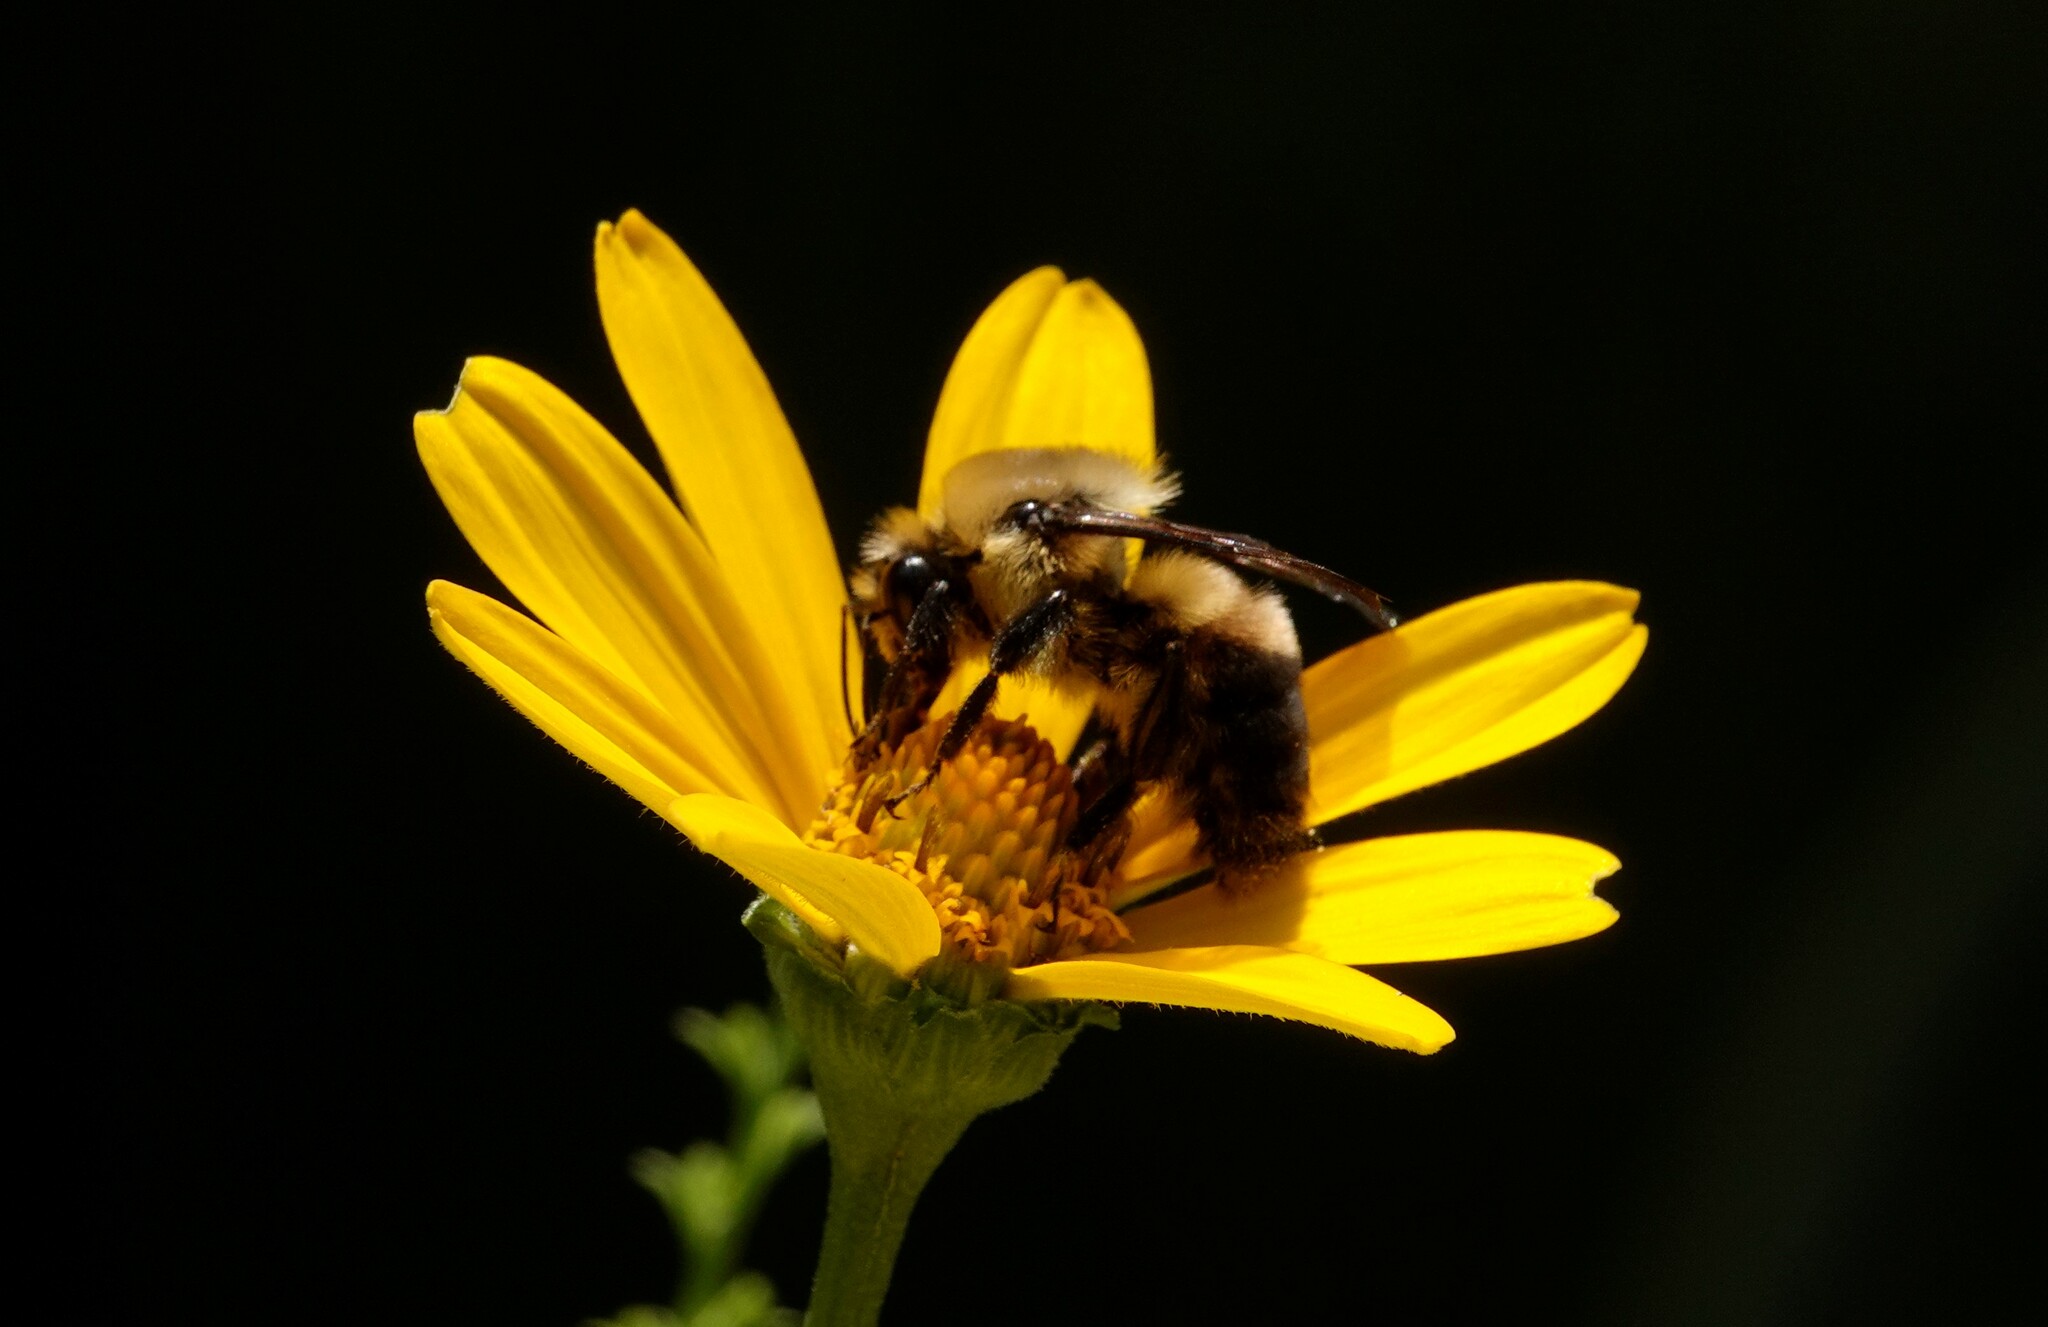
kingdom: Animalia
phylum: Arthropoda
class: Insecta
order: Hymenoptera
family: Apidae
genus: Bombus
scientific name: Bombus griseocollis
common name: Brown-belted bumble bee
